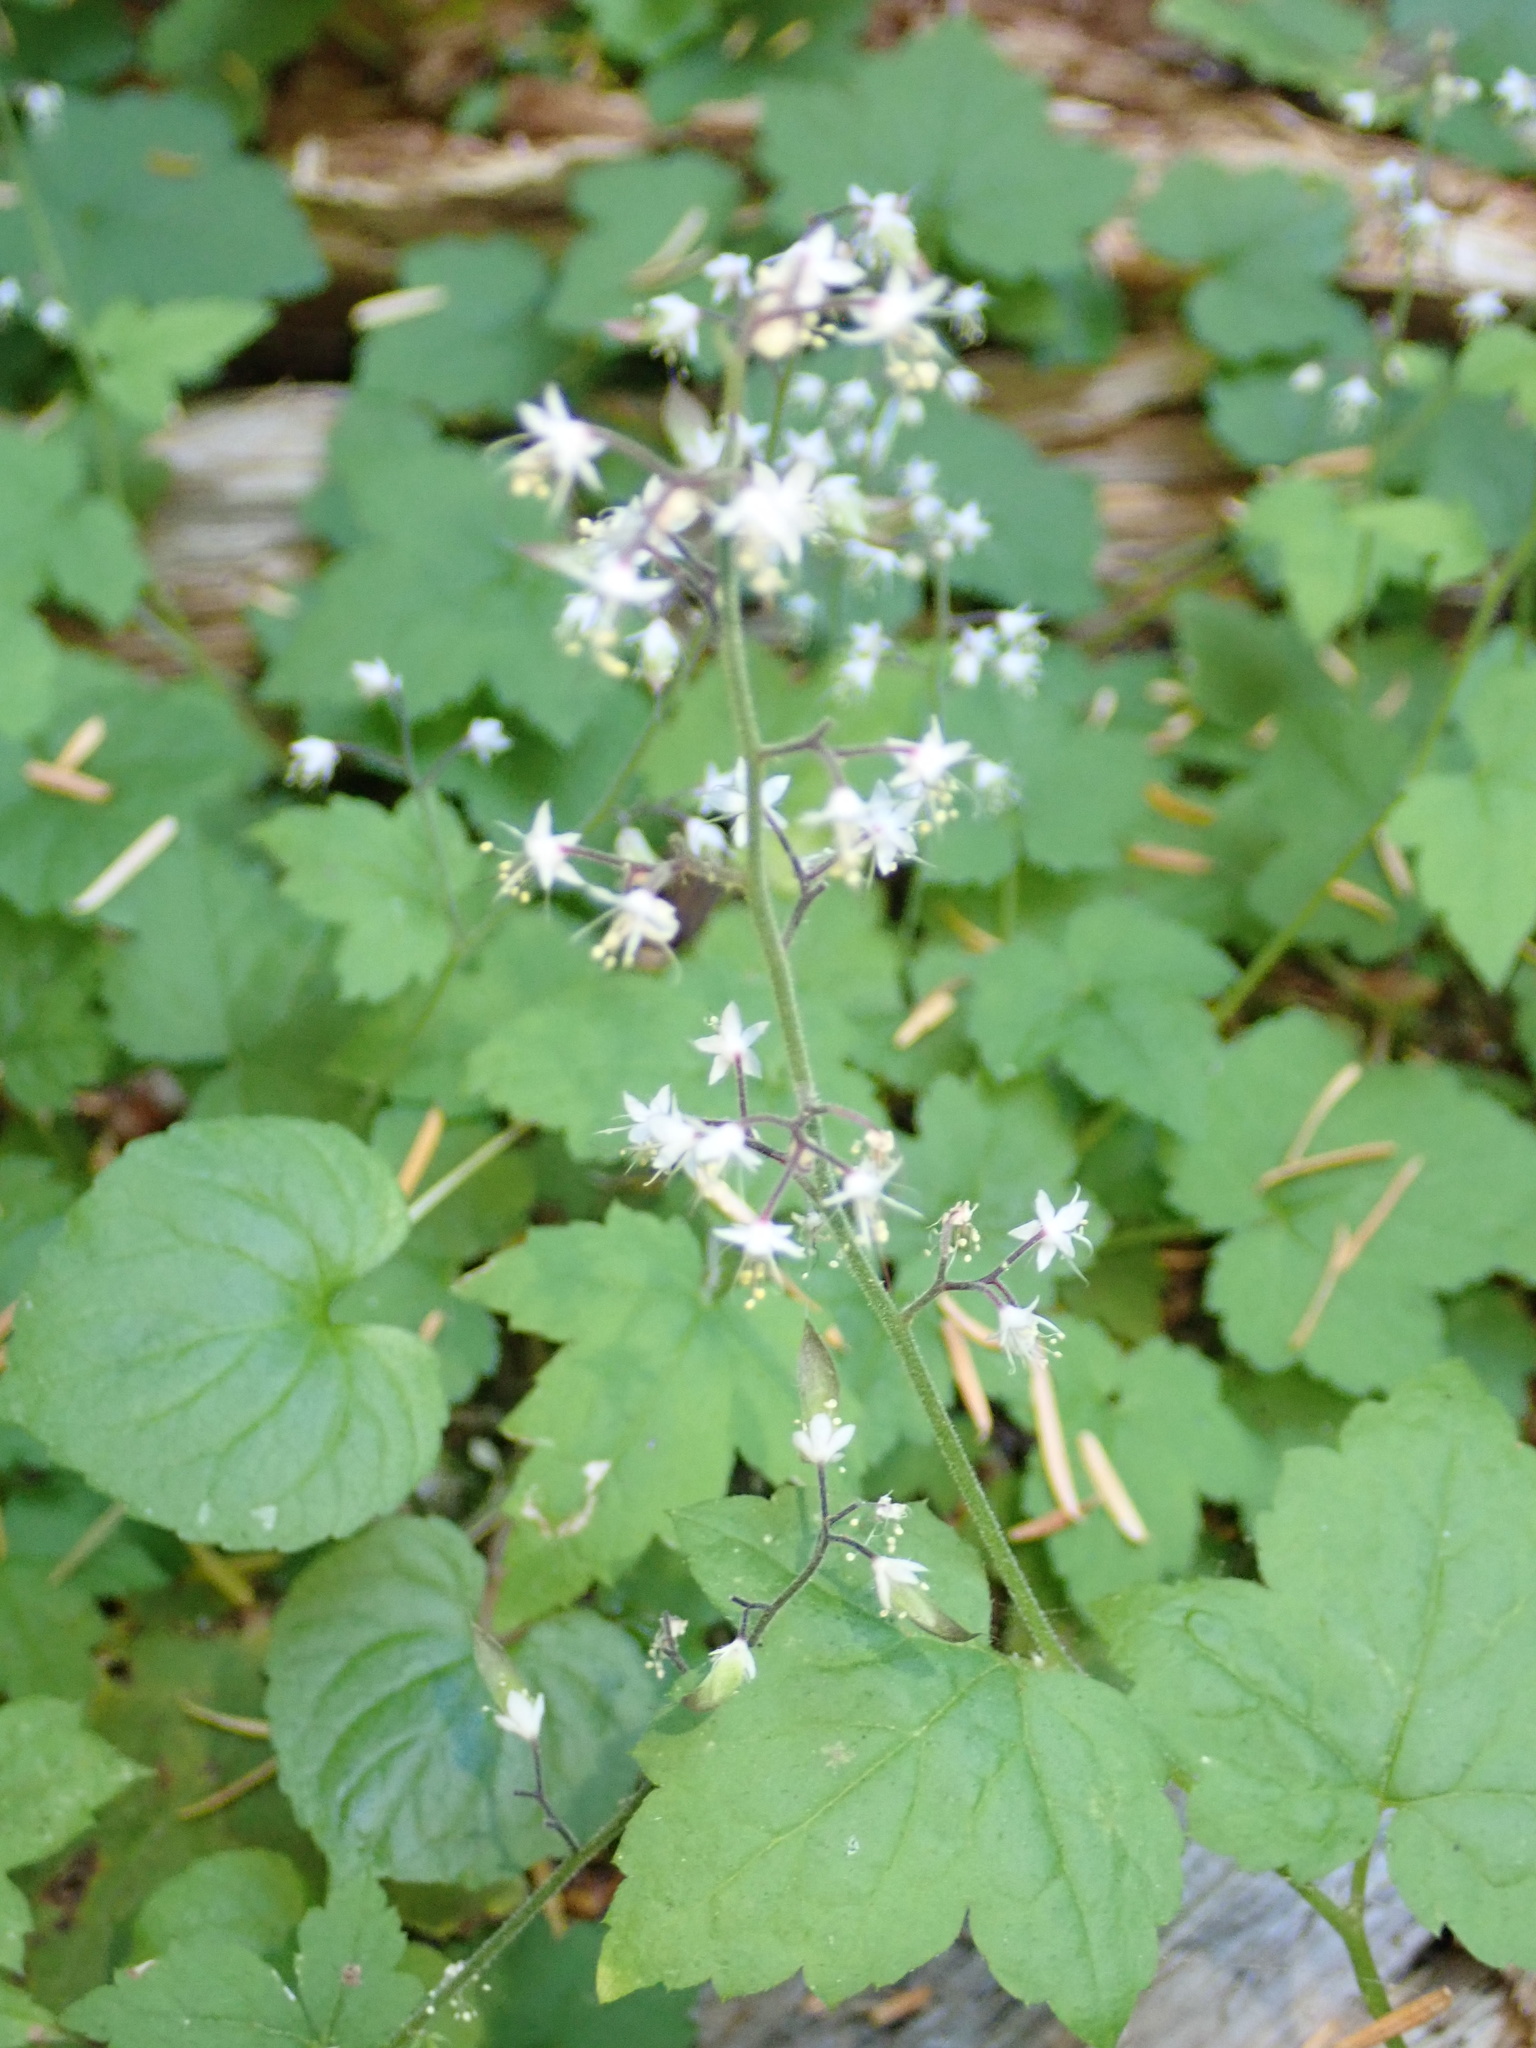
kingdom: Plantae
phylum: Tracheophyta
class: Magnoliopsida
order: Saxifragales
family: Saxifragaceae
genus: Tiarella
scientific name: Tiarella trifoliata
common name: Sugar-scoop
